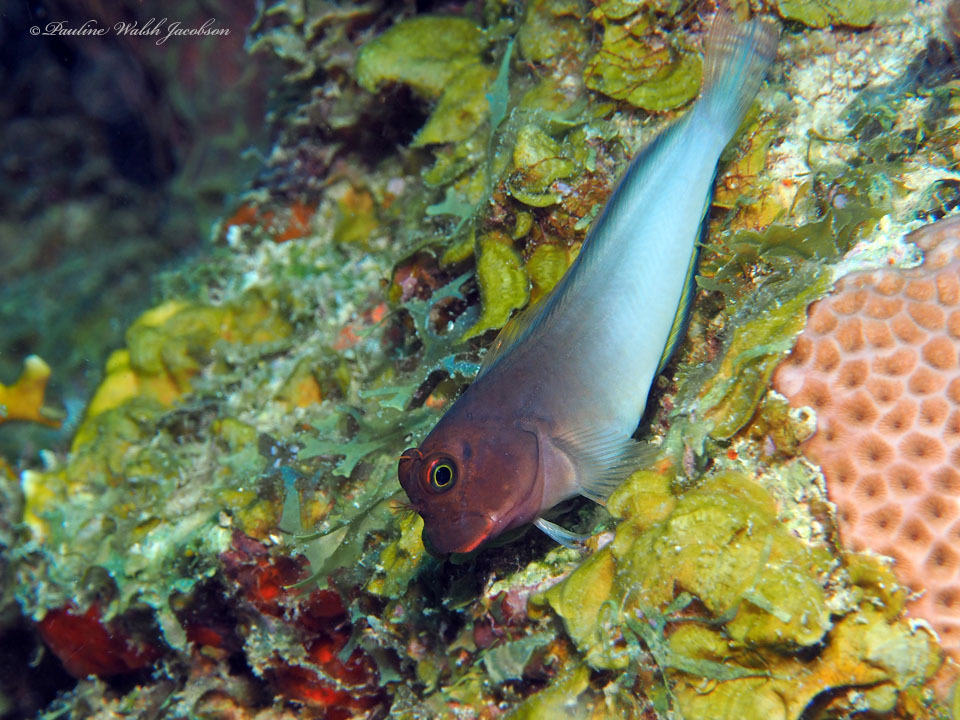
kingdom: Animalia
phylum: Chordata
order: Perciformes
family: Blenniidae
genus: Ophioblennius
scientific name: Ophioblennius macclurei
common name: Redlip blenny
